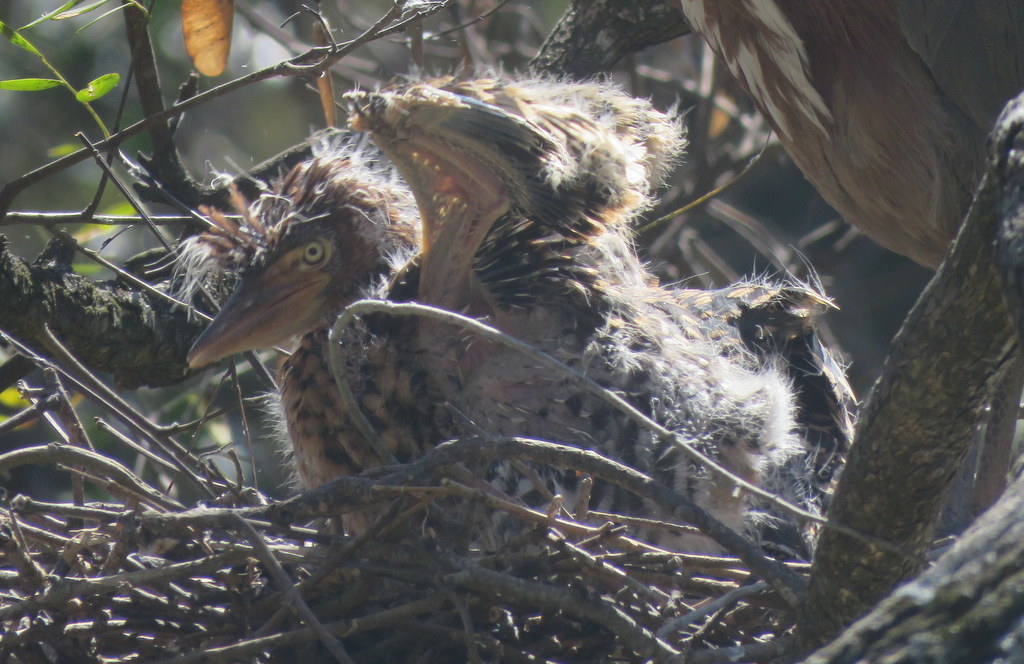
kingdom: Animalia
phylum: Chordata
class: Aves
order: Pelecaniformes
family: Ardeidae
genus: Tigrisoma
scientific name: Tigrisoma lineatum
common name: Rufescent tiger-heron
